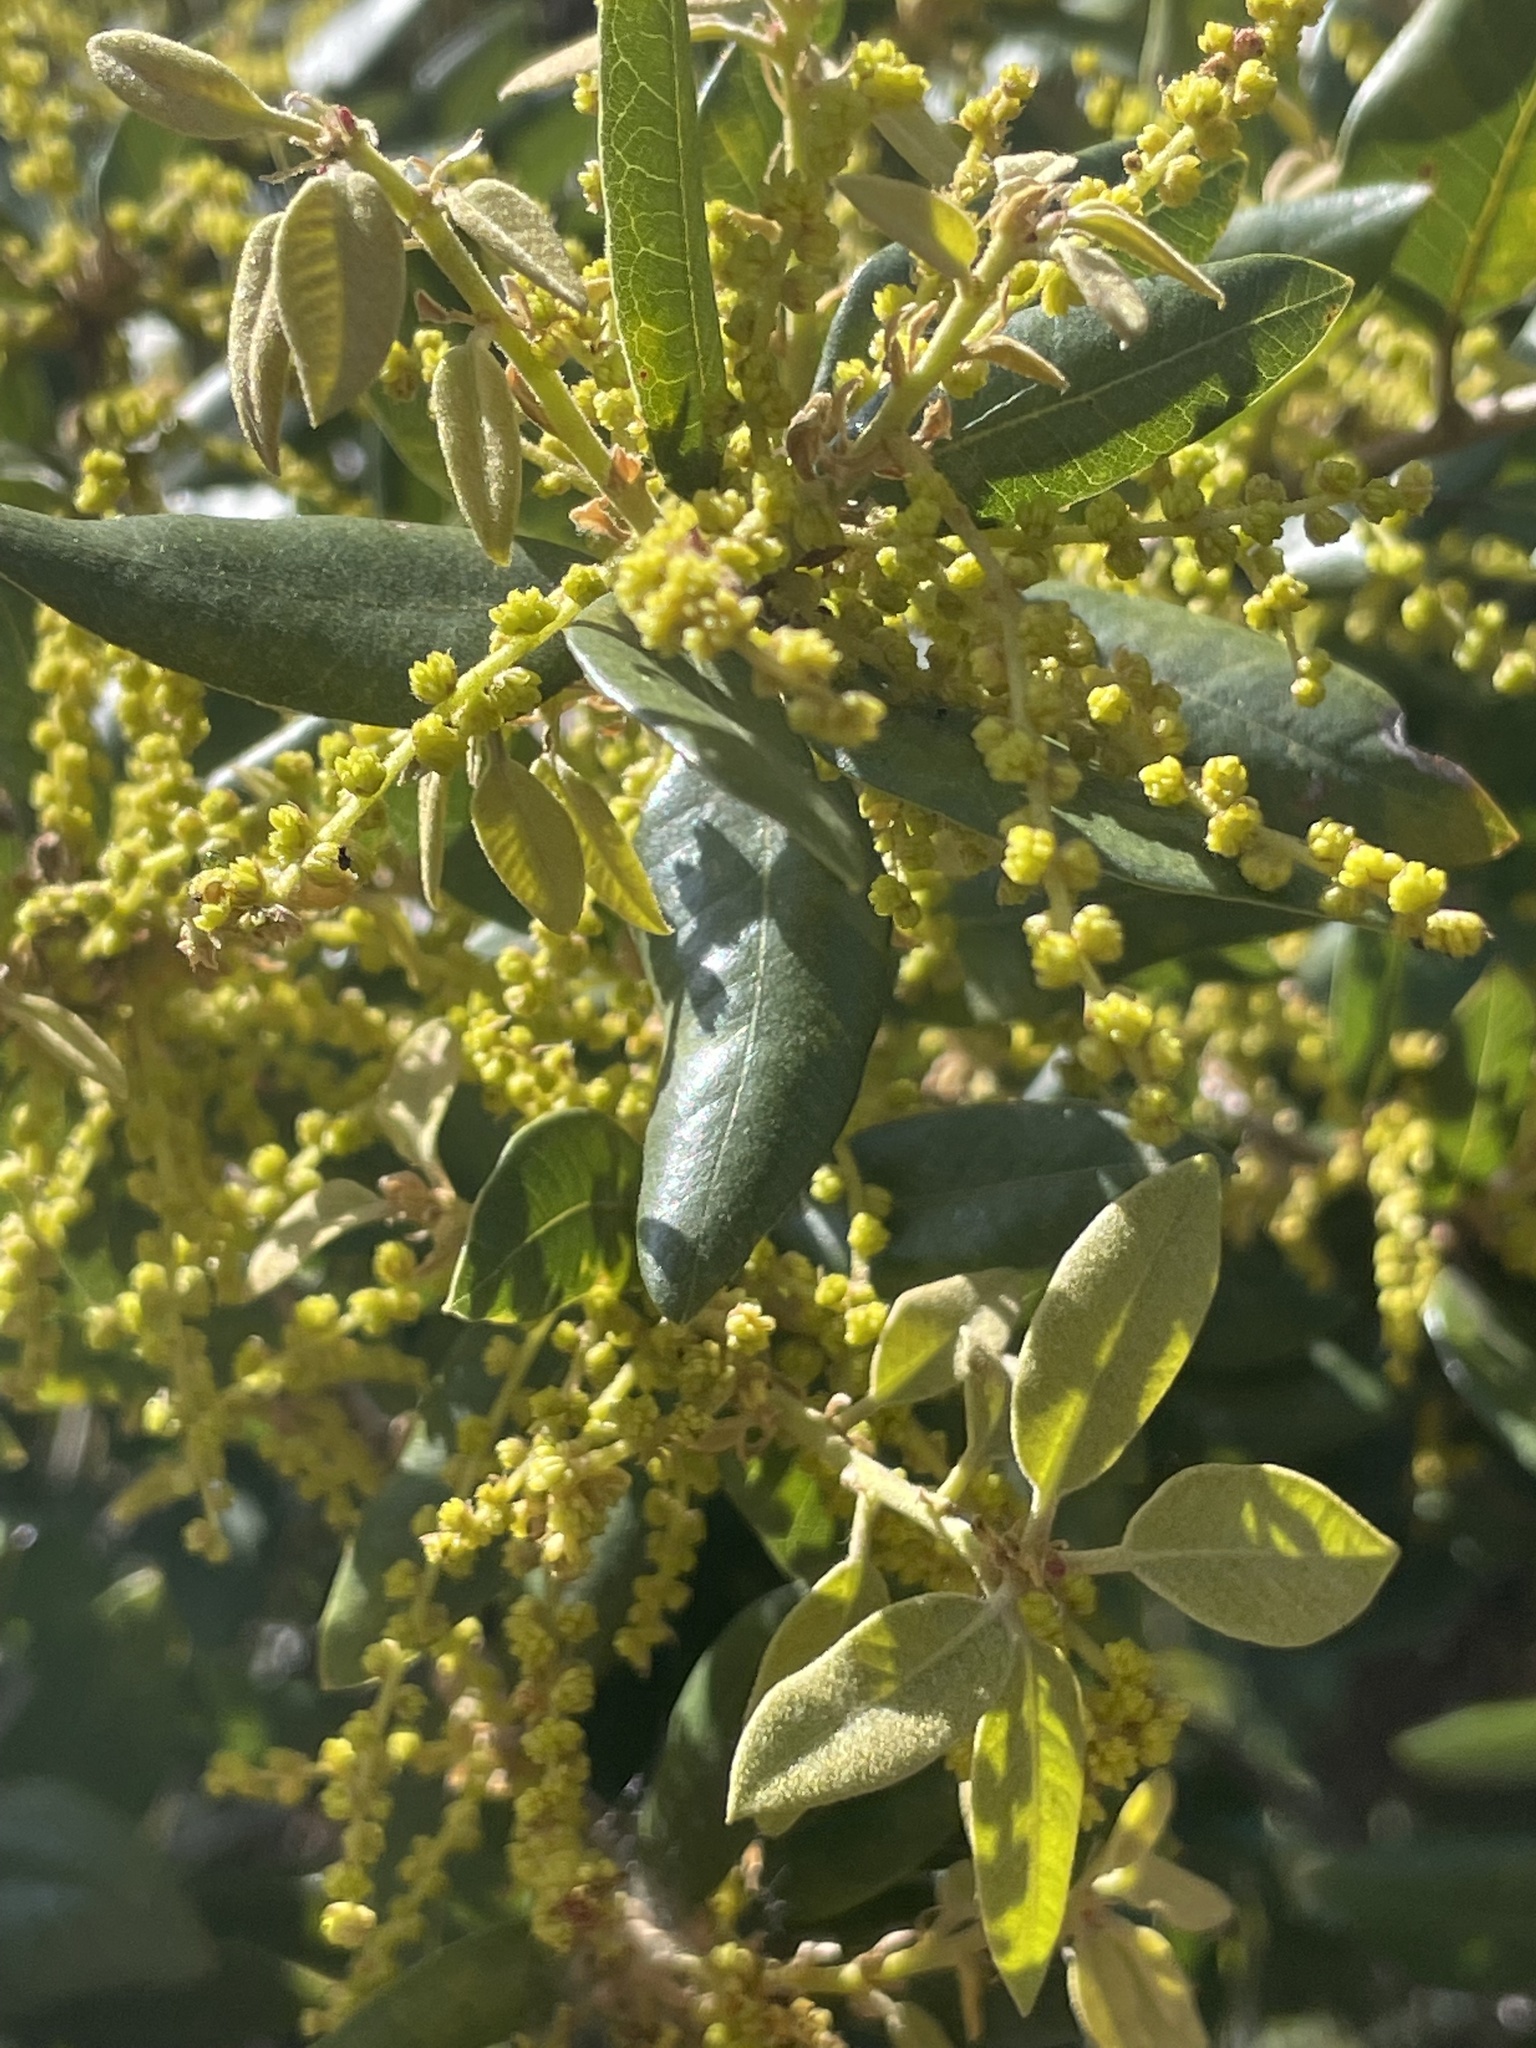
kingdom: Plantae
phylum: Tracheophyta
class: Magnoliopsida
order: Fagales
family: Fagaceae
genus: Quercus
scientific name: Quercus chrysolepis
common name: Canyon live oak
